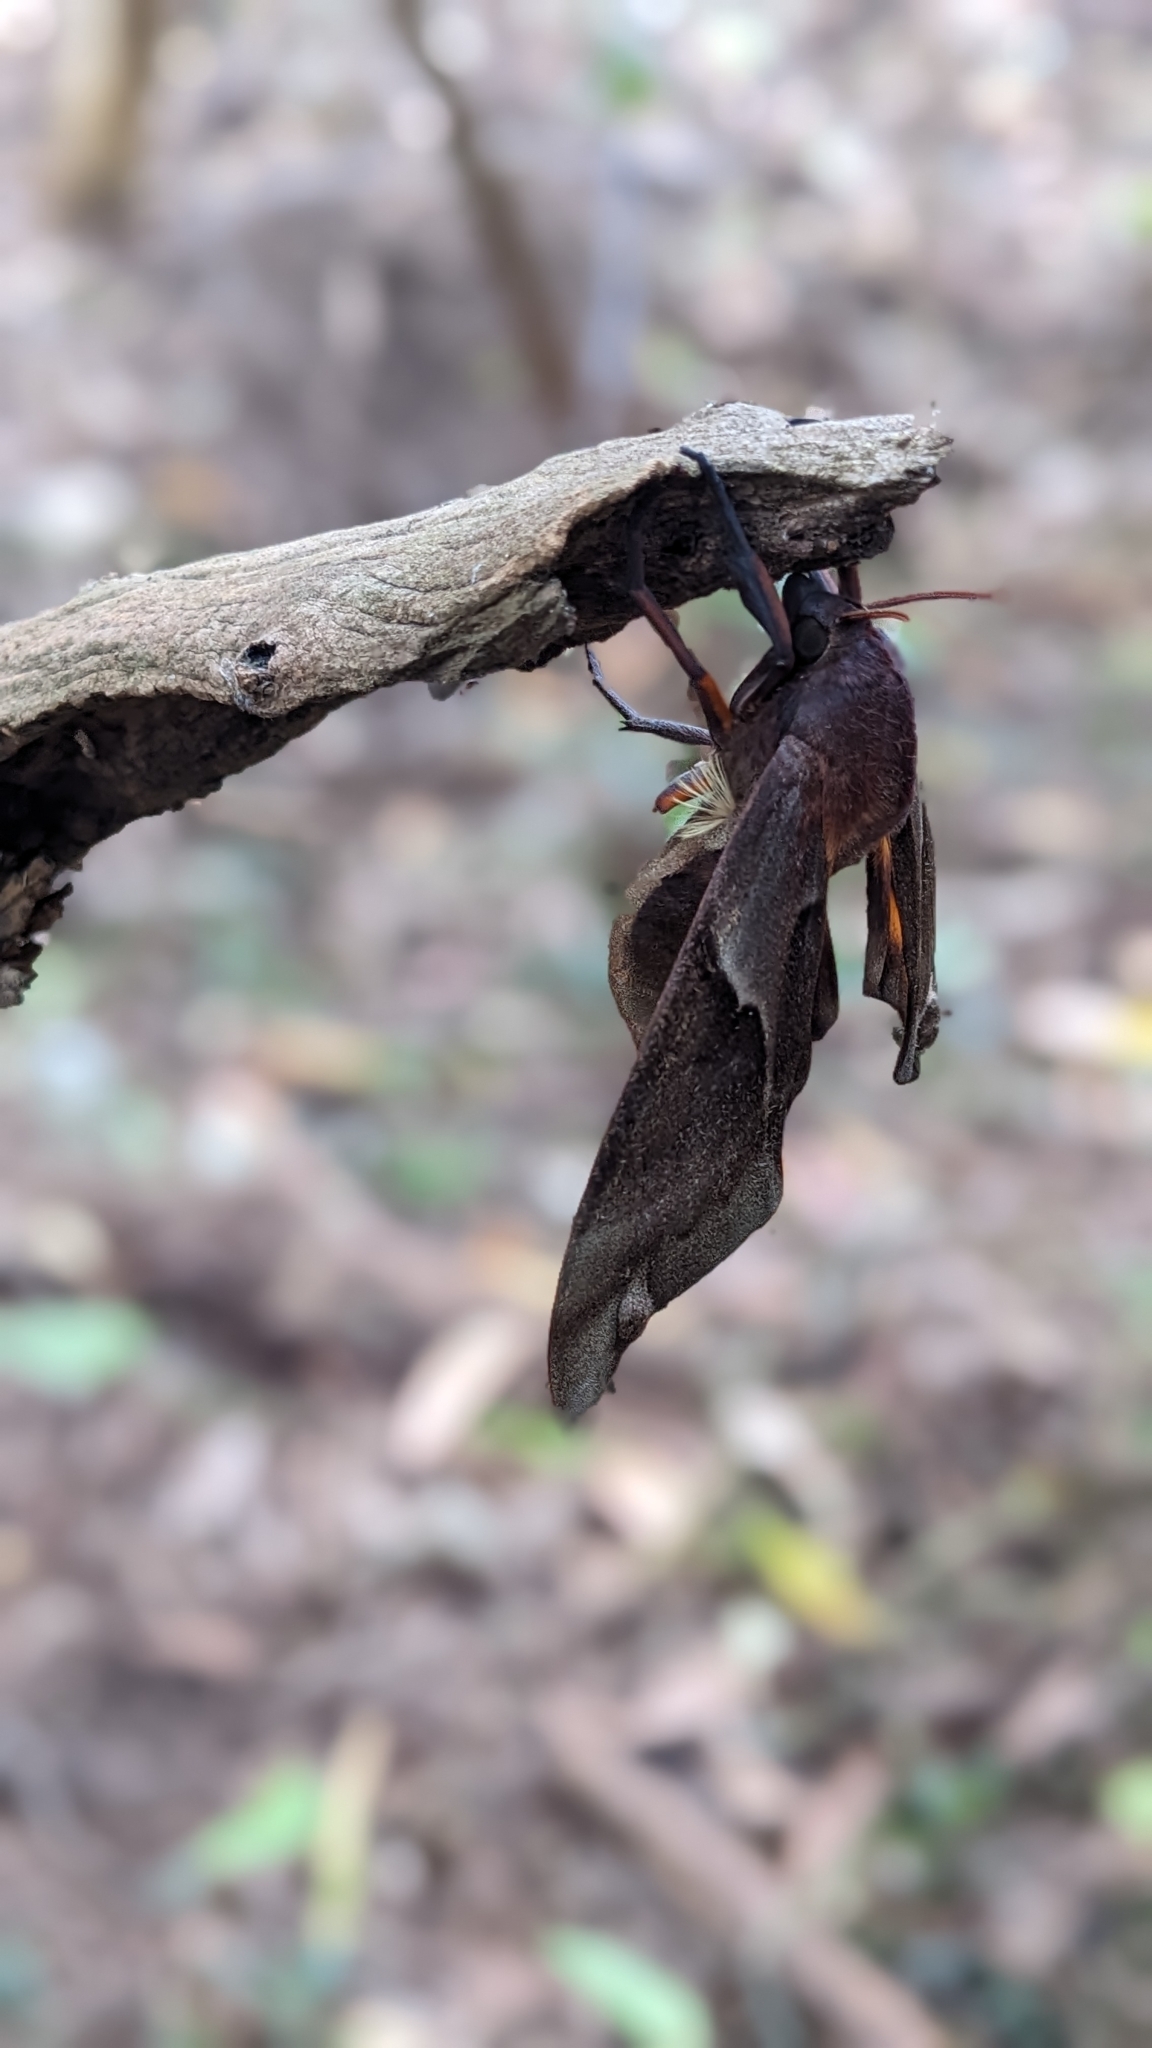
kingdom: Animalia
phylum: Arthropoda
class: Insecta
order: Lepidoptera
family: Sphingidae
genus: Coequosa
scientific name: Coequosa australasiae
